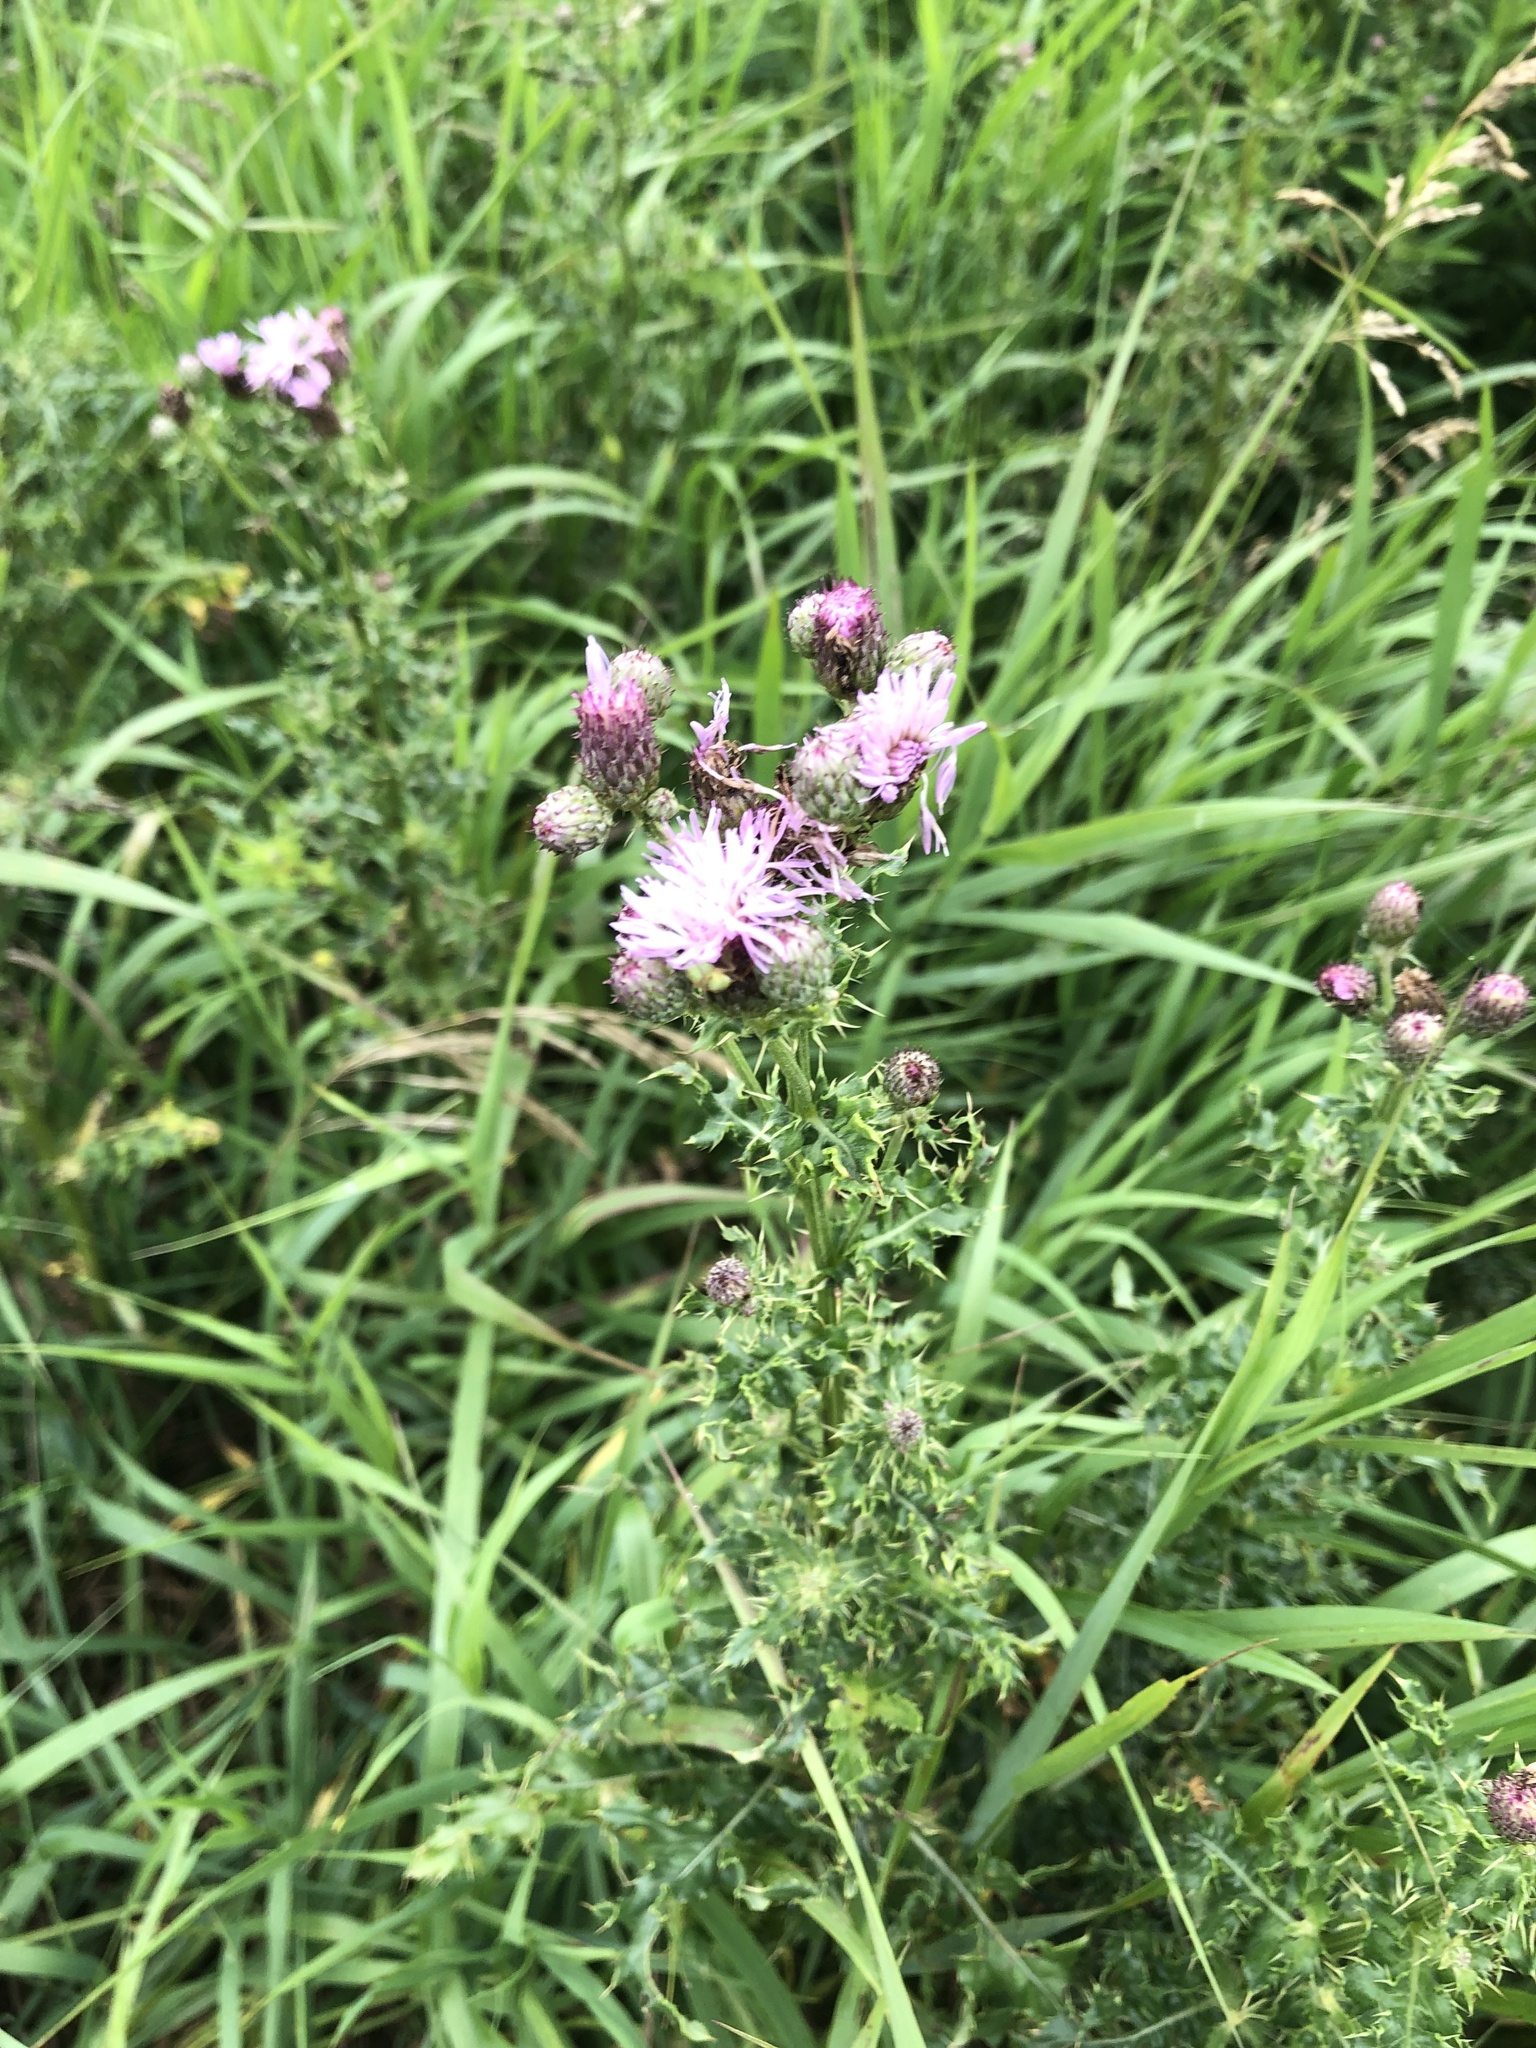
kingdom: Plantae
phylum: Tracheophyta
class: Magnoliopsida
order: Asterales
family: Asteraceae
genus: Cirsium
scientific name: Cirsium arvense
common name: Creeping thistle
